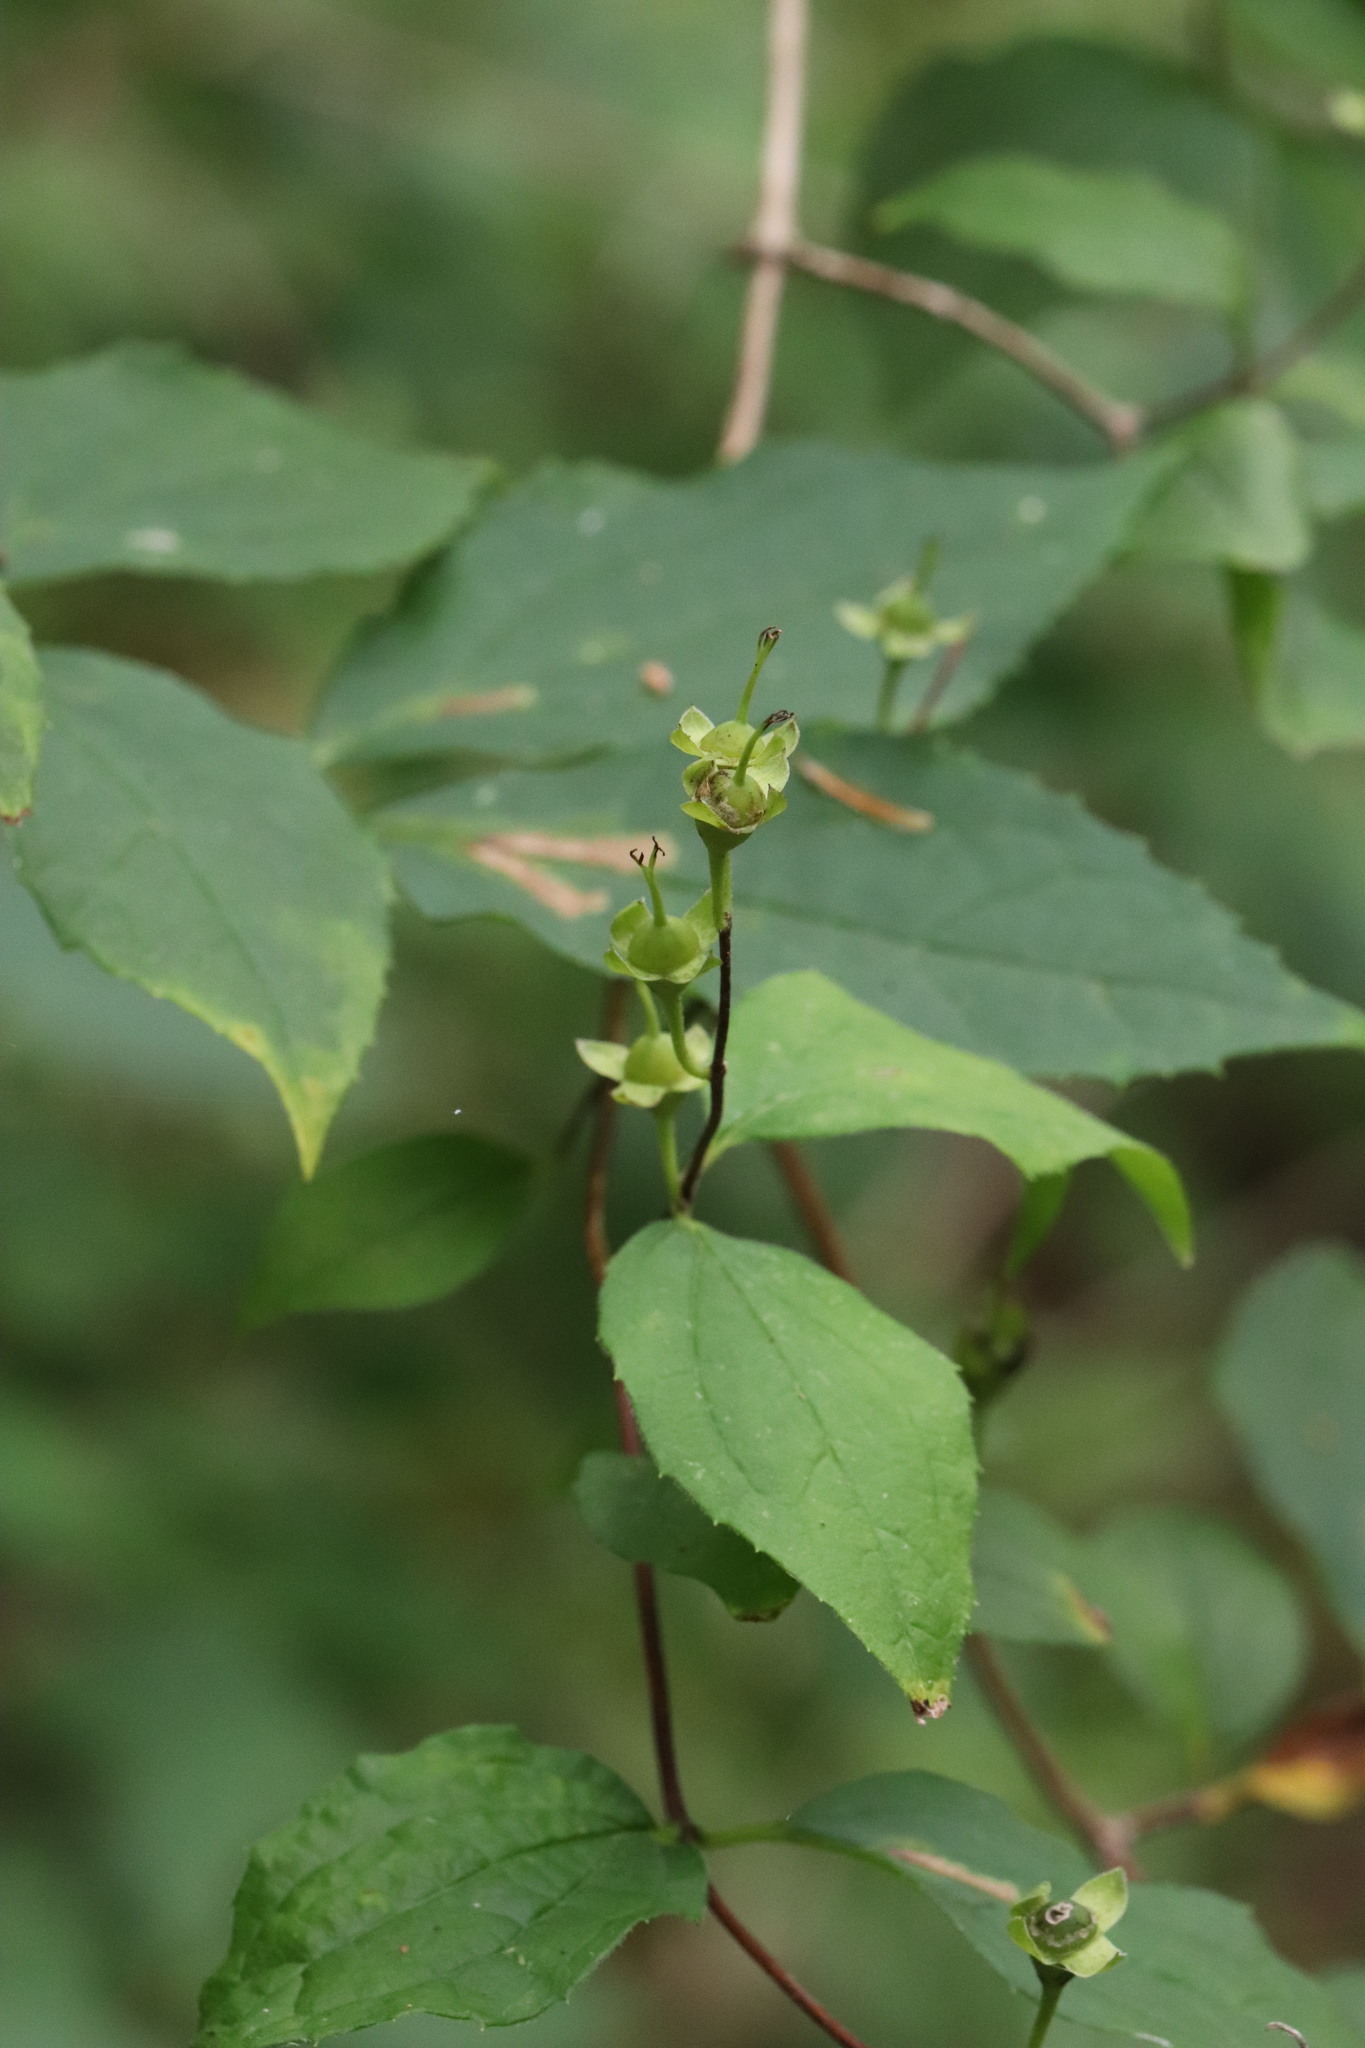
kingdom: Plantae
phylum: Tracheophyta
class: Magnoliopsida
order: Cornales
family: Hydrangeaceae
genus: Philadelphus
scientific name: Philadelphus tenuifolius
